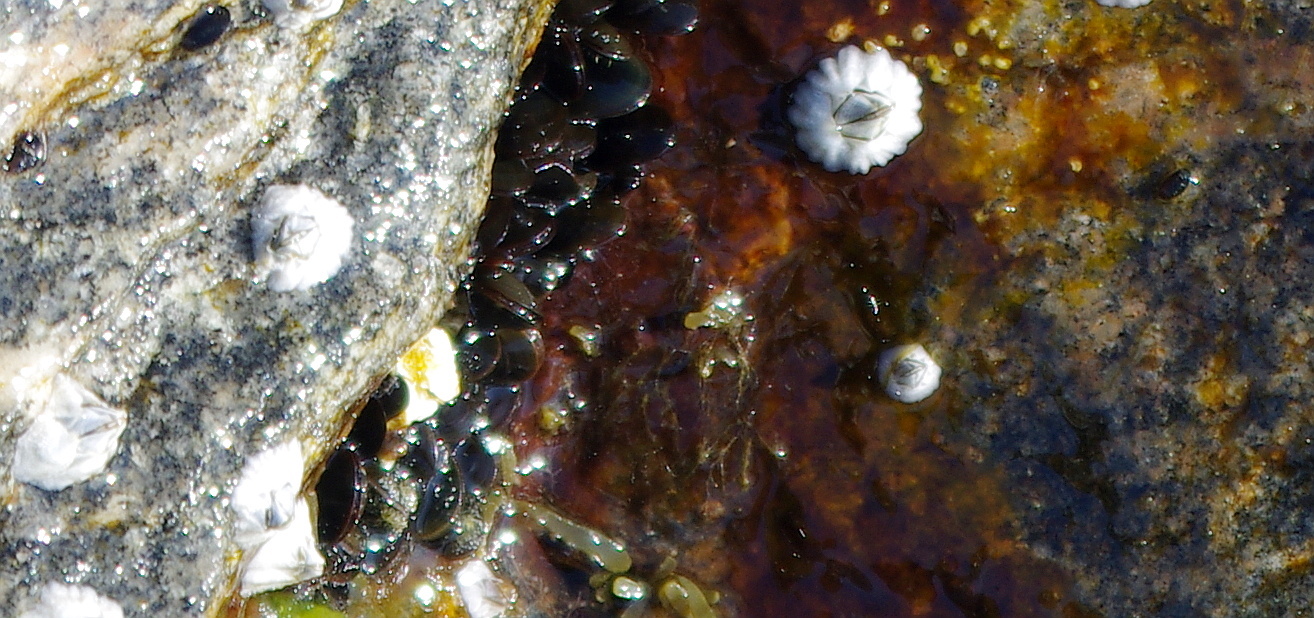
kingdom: Animalia
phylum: Arthropoda
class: Maxillopoda
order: Sessilia
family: Archaeobalanidae
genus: Semibalanus
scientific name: Semibalanus balanoides
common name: Acorn barnacle
